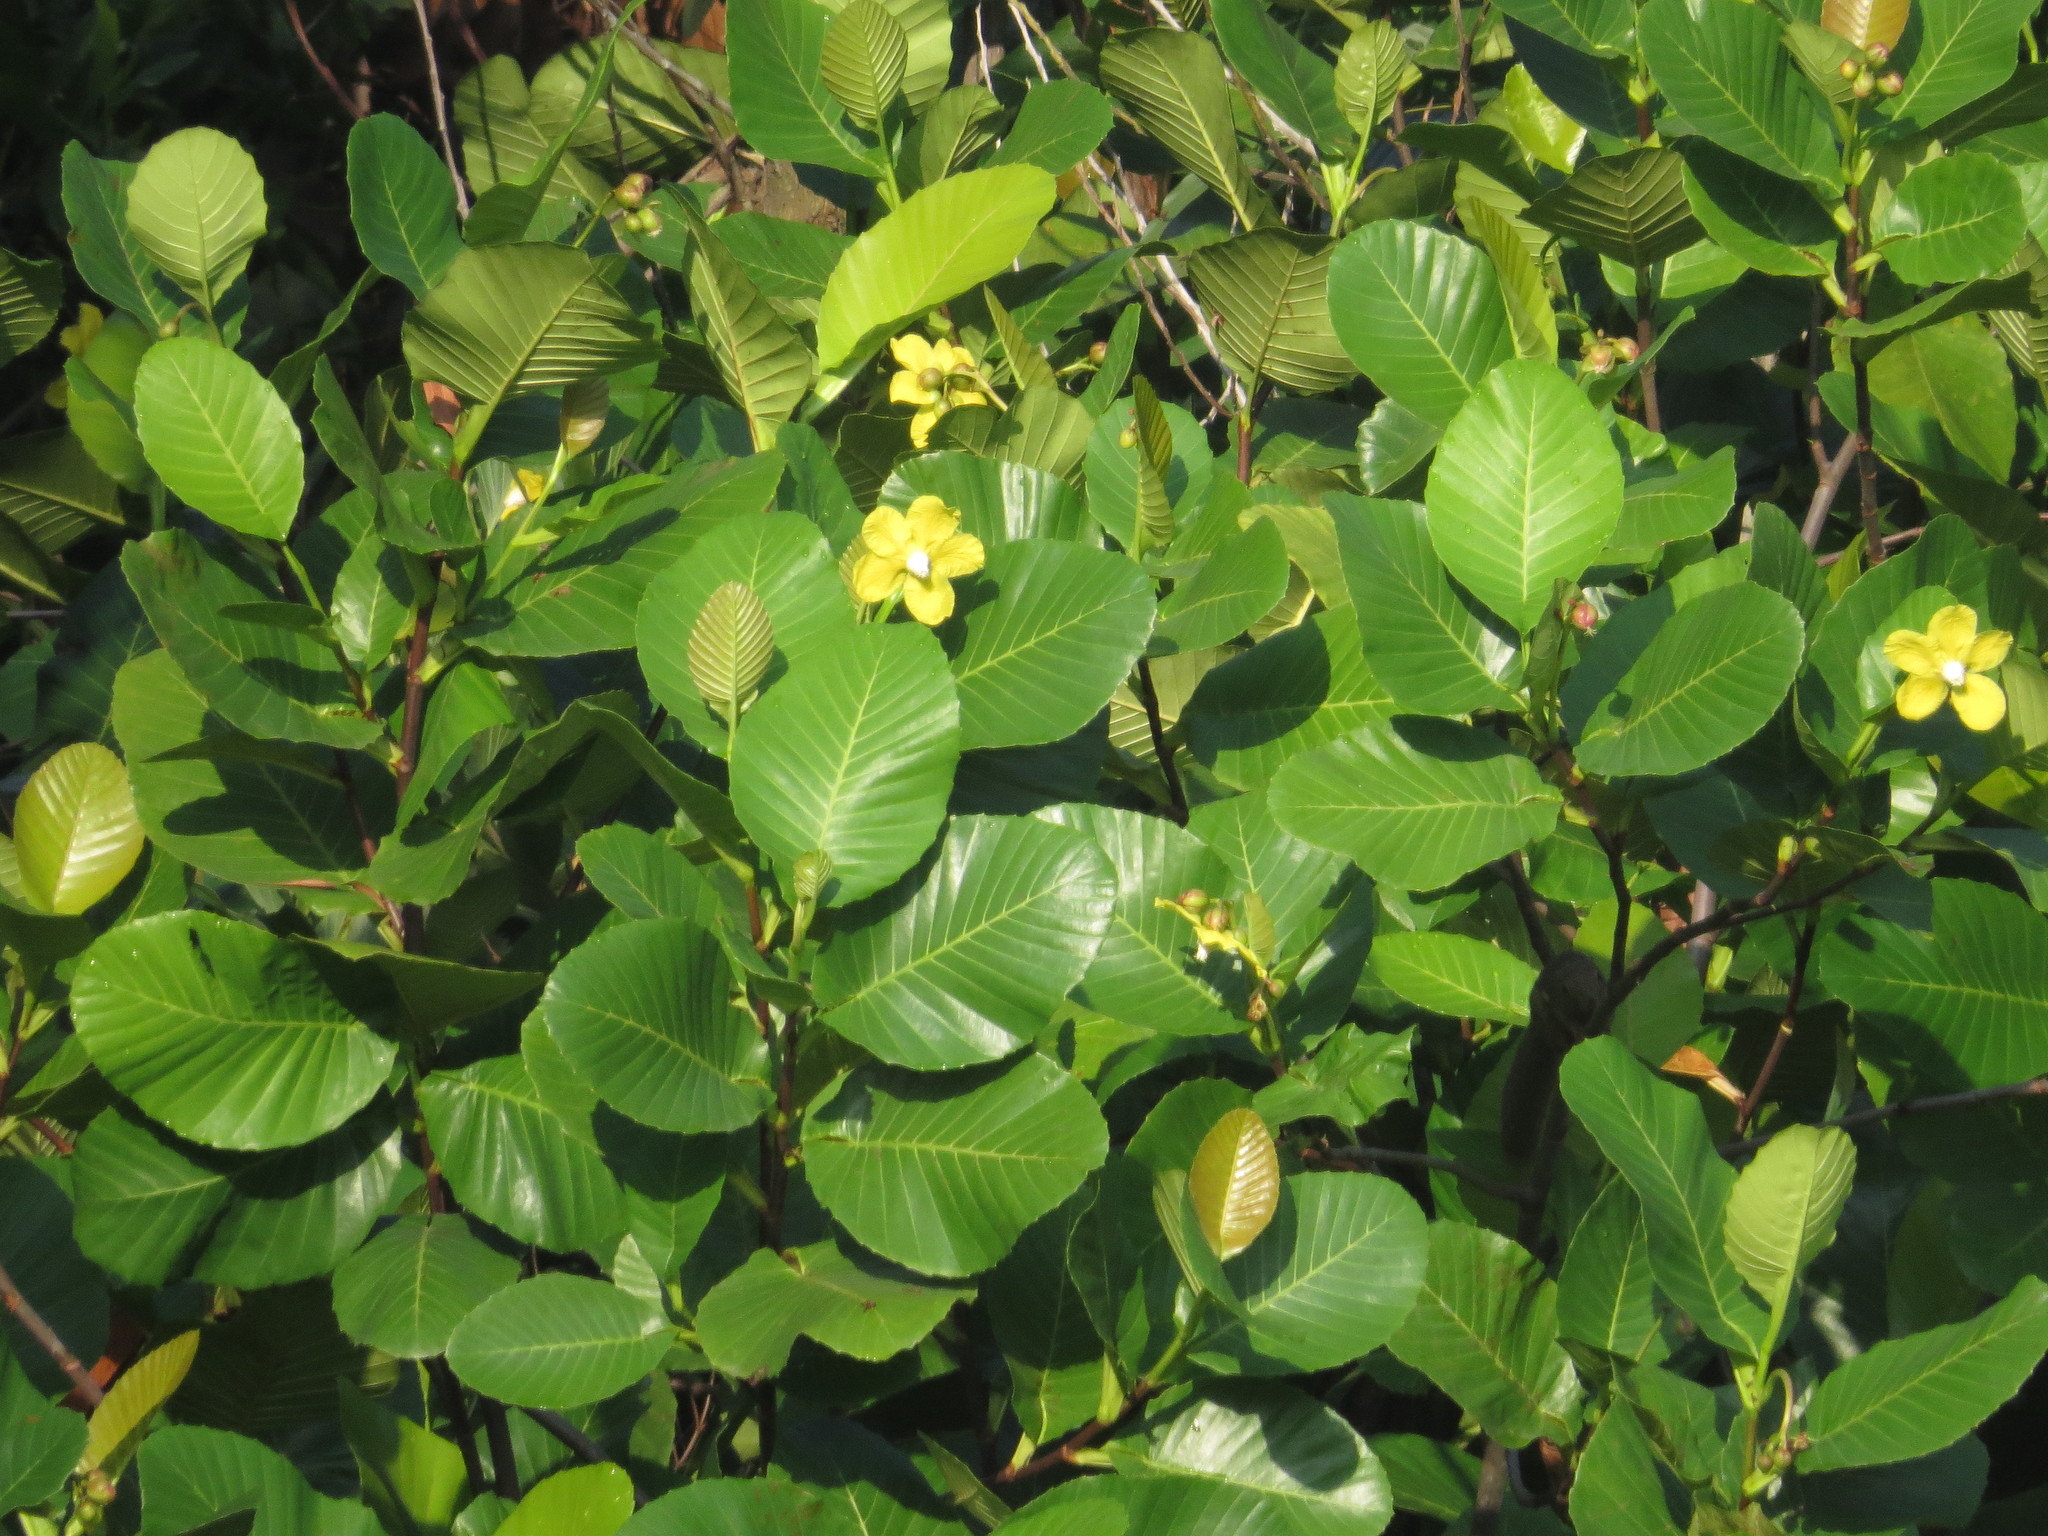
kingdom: Plantae
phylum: Tracheophyta
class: Magnoliopsida
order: Dilleniales
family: Dilleniaceae
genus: Dillenia
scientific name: Dillenia suffruticosa
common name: Shrubby dillenia
